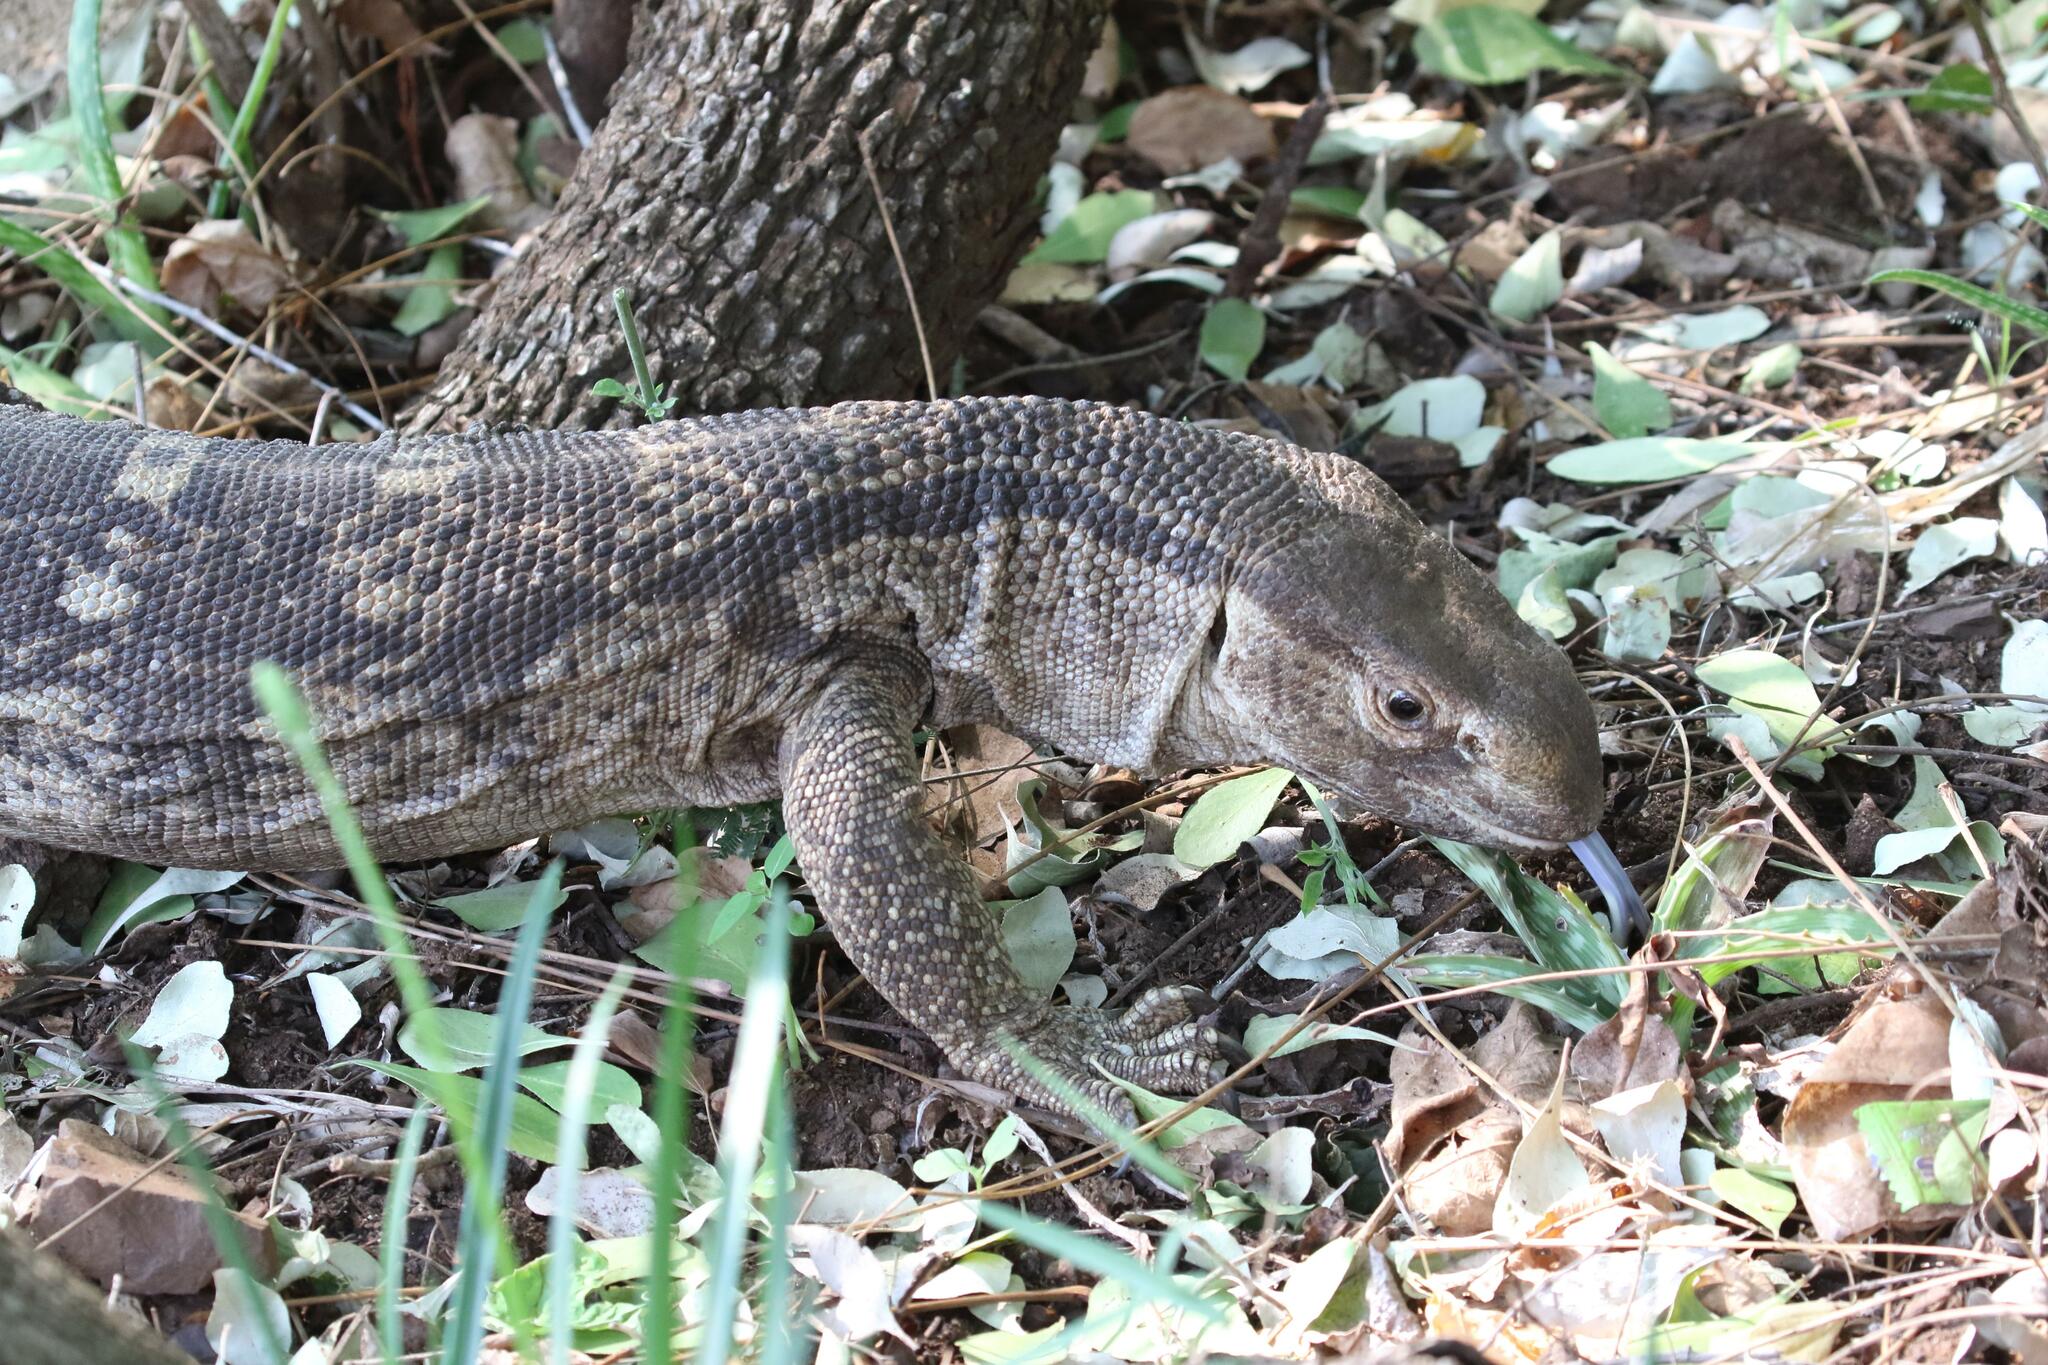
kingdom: Animalia
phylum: Chordata
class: Squamata
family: Varanidae
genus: Varanus
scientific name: Varanus albigularis
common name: White-throated monitor
